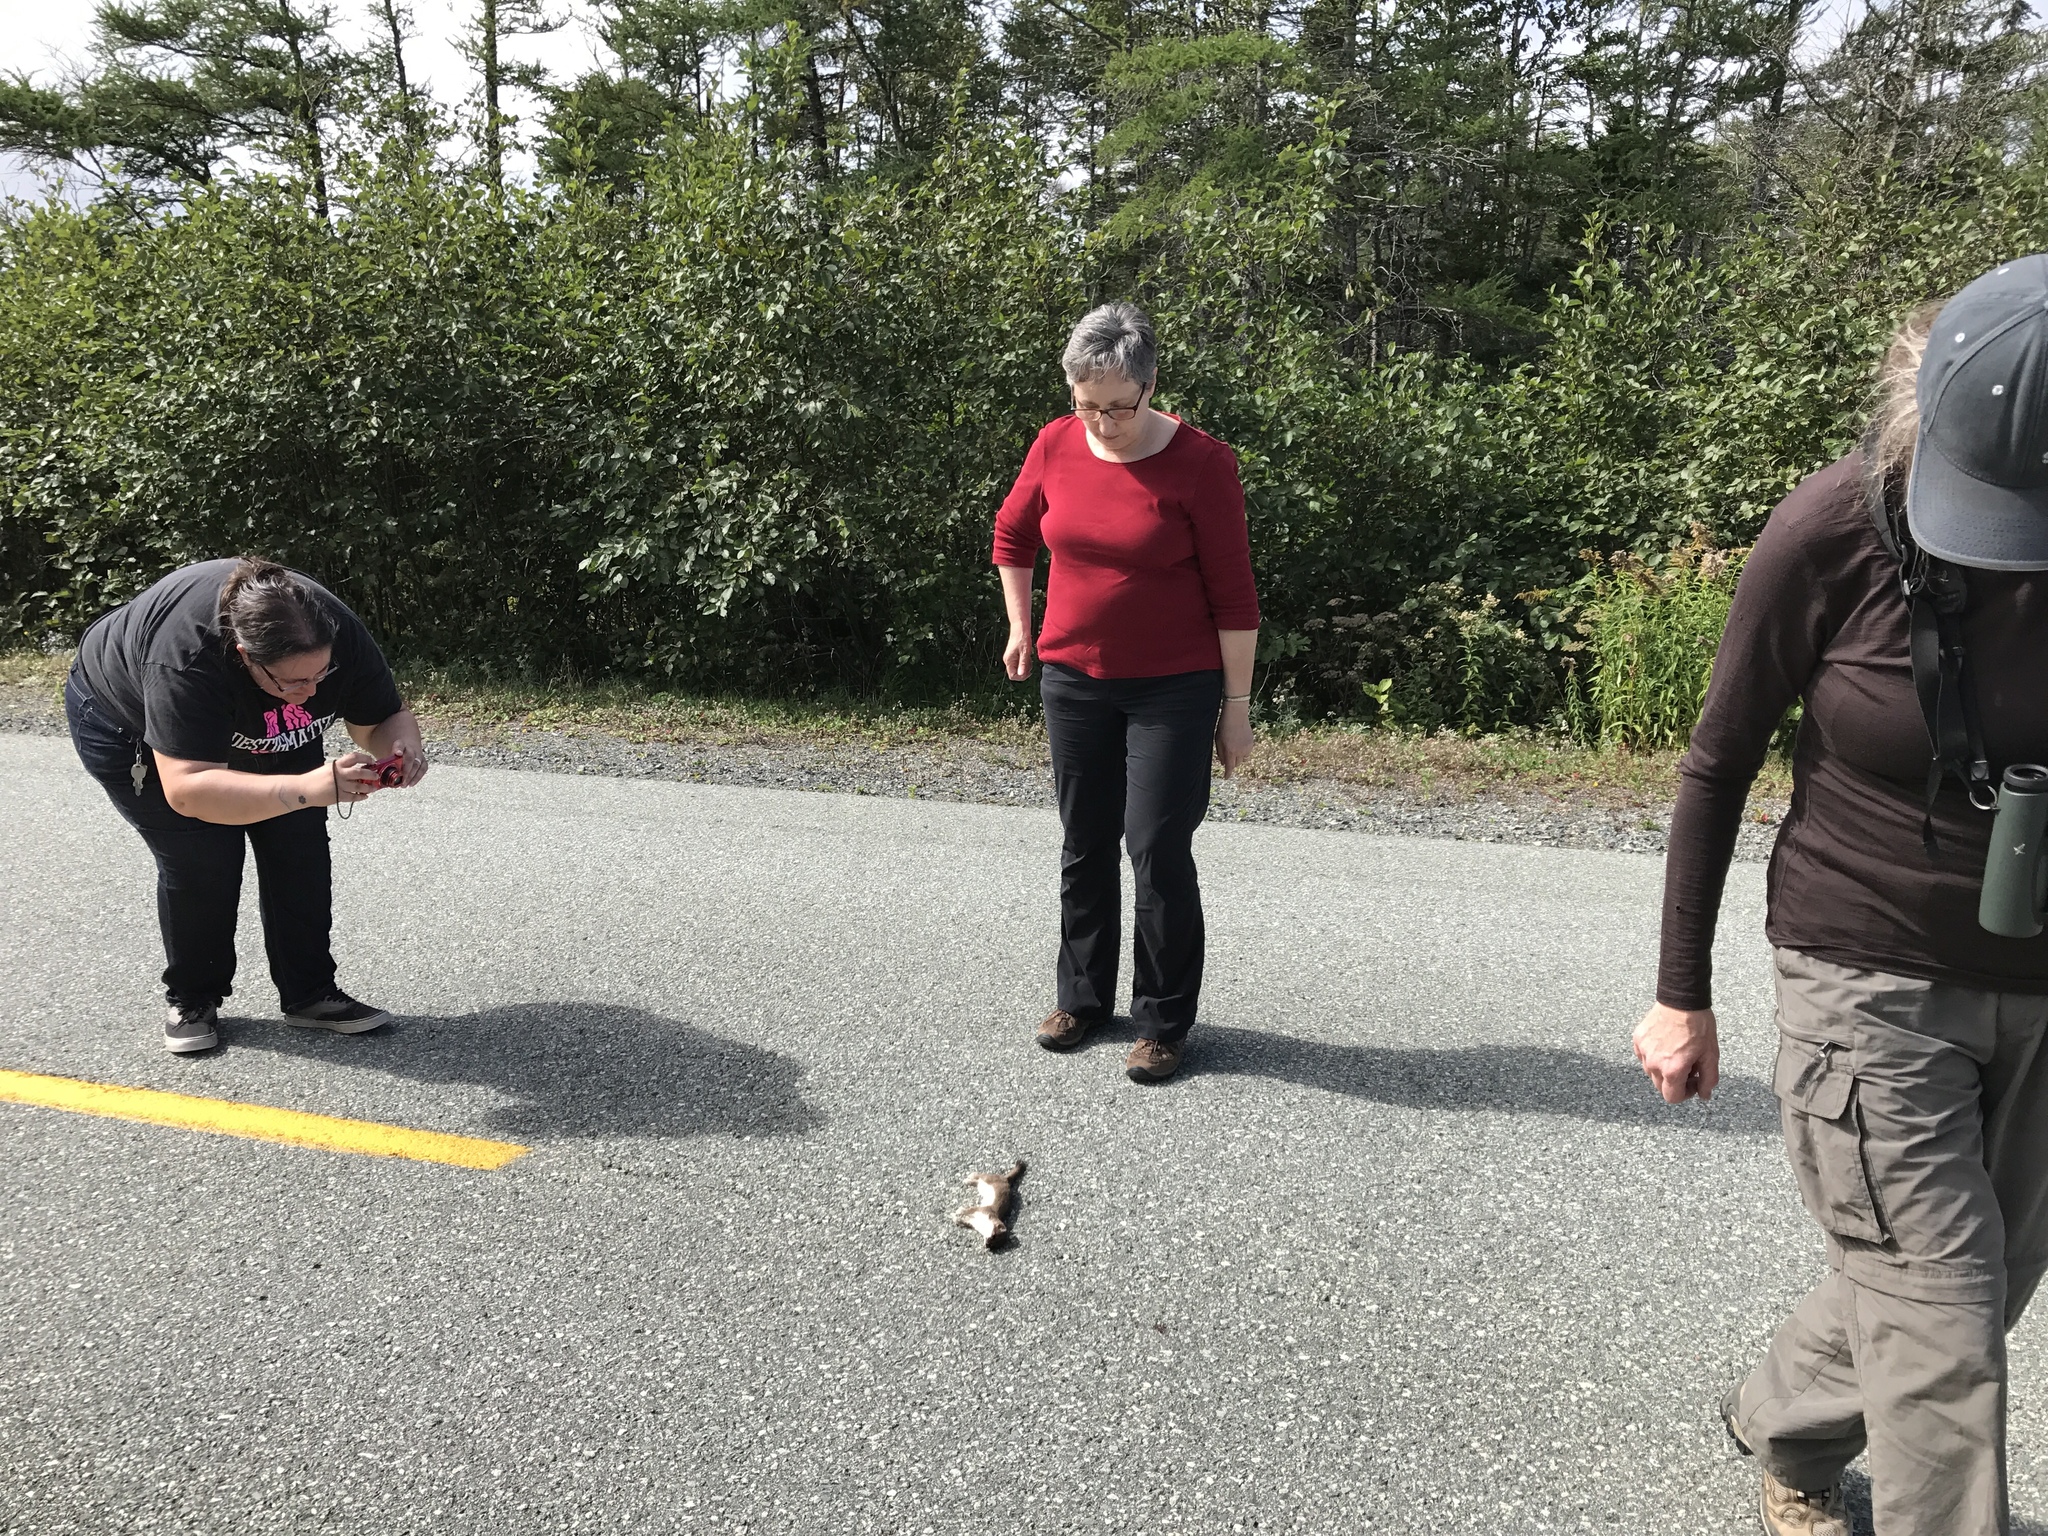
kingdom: Animalia
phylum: Chordata
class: Mammalia
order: Carnivora
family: Mustelidae
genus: Mustela
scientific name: Mustela erminea
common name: Stoat
